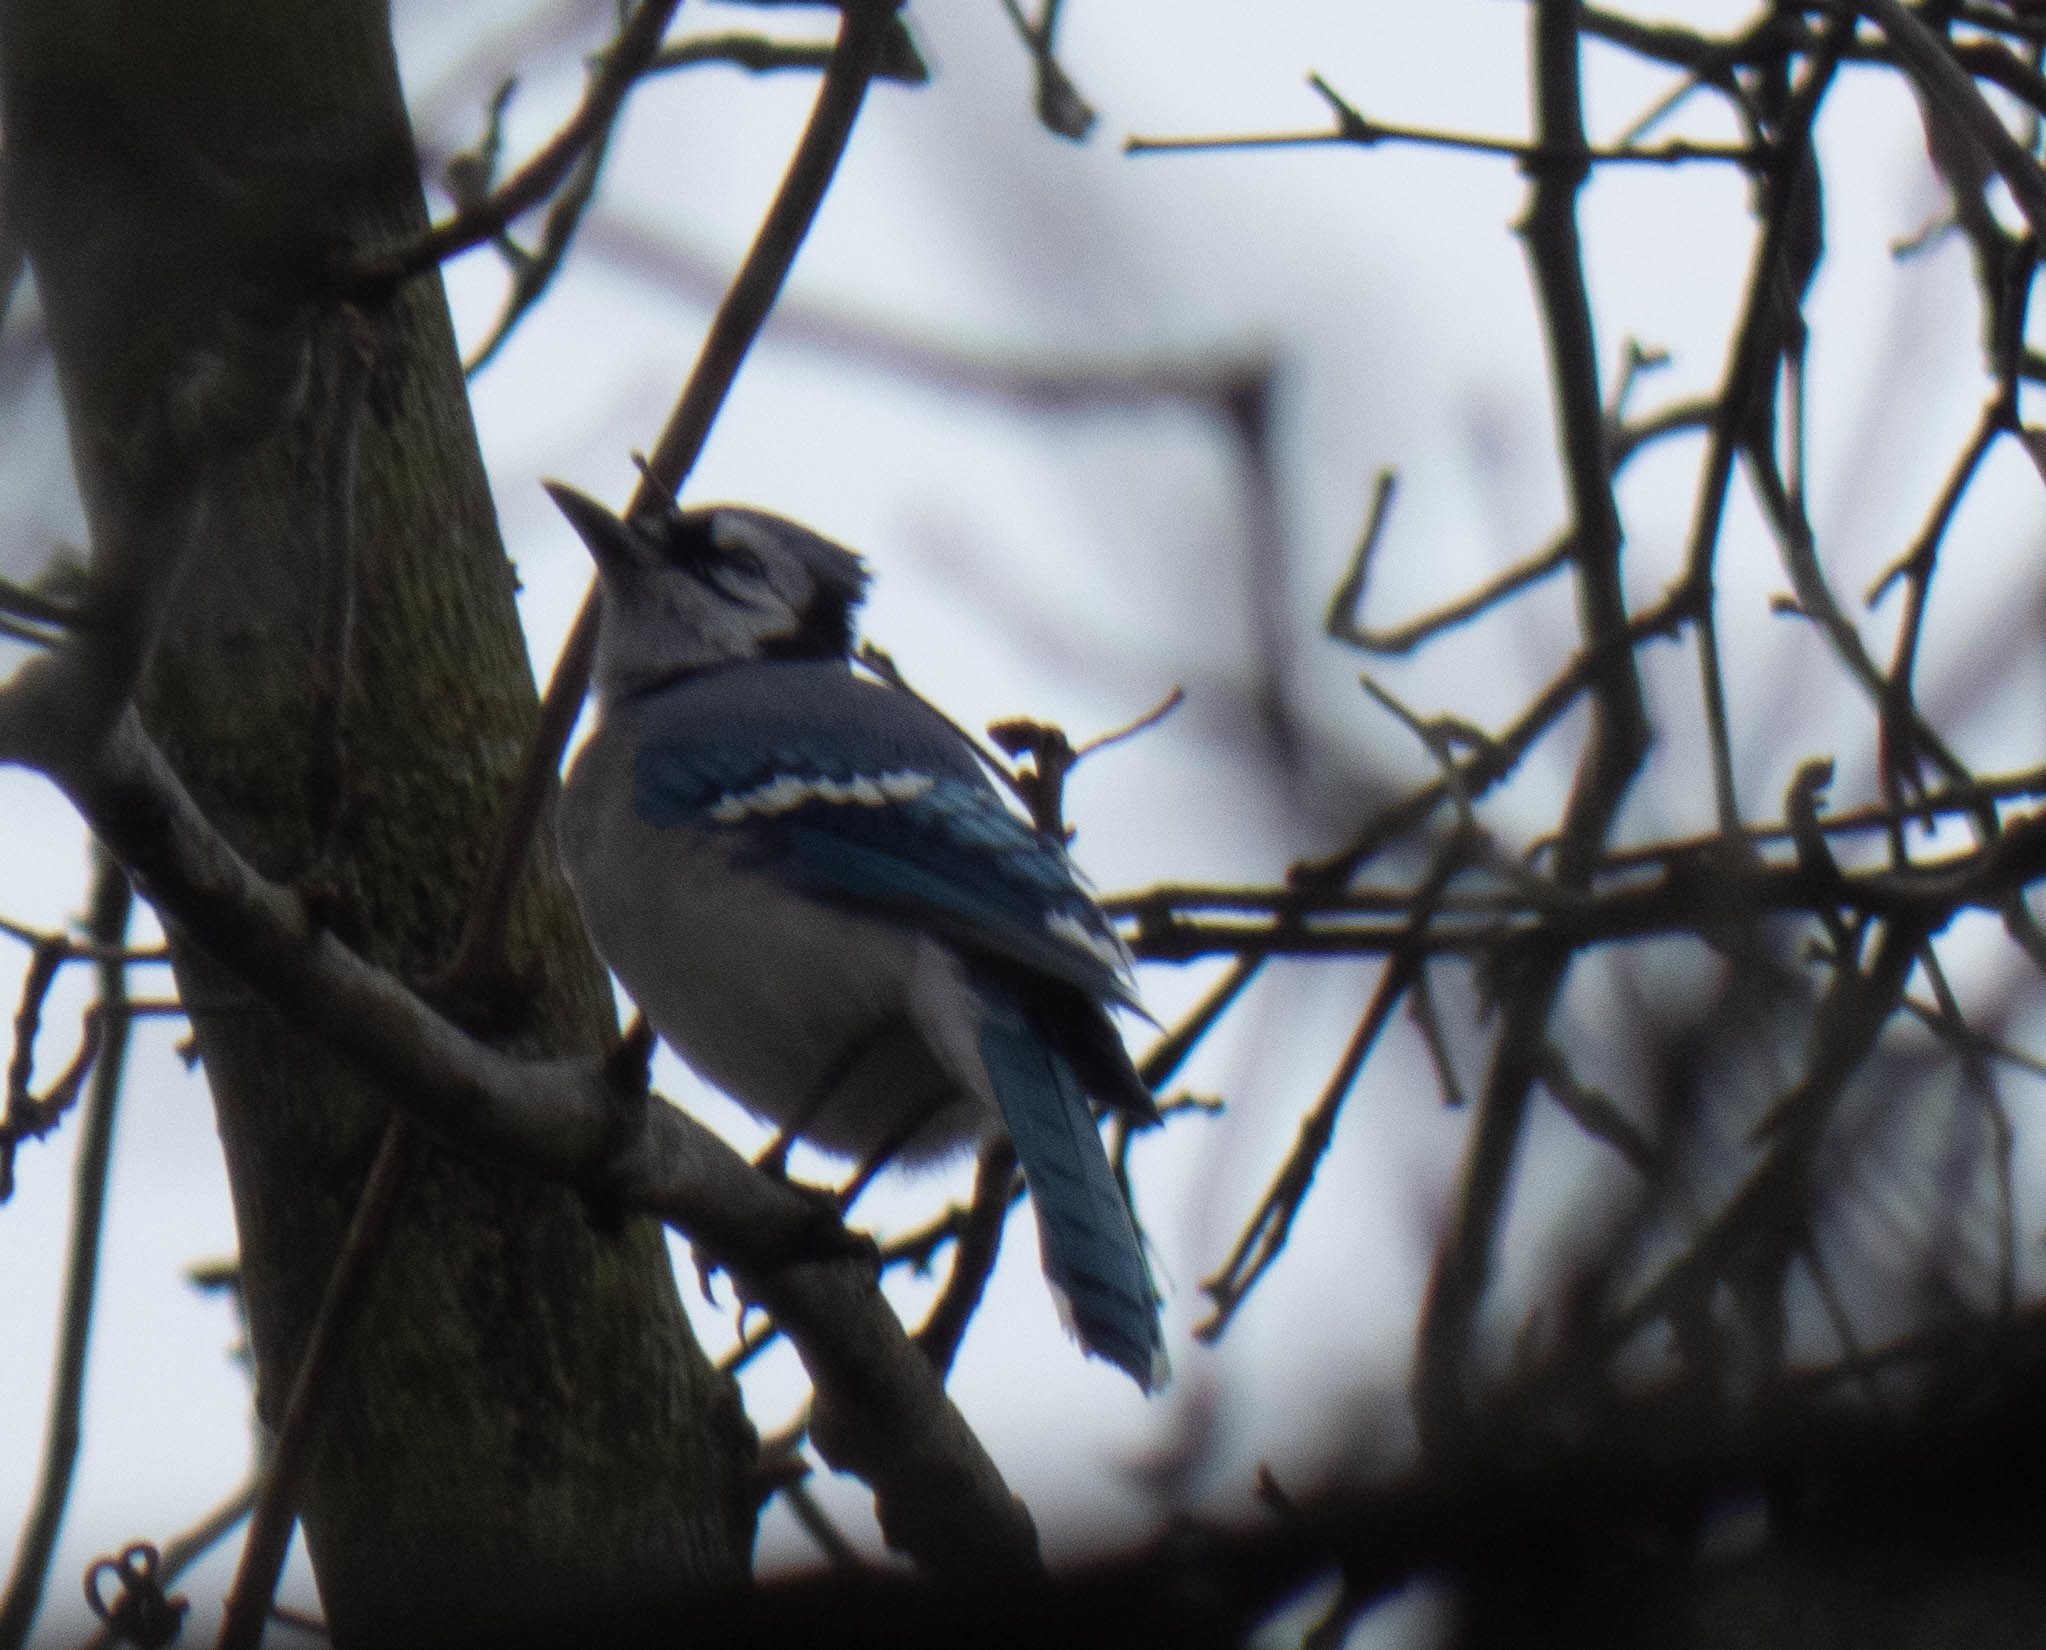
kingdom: Animalia
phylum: Chordata
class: Aves
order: Passeriformes
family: Corvidae
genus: Cyanocitta
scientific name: Cyanocitta cristata
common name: Blue jay
